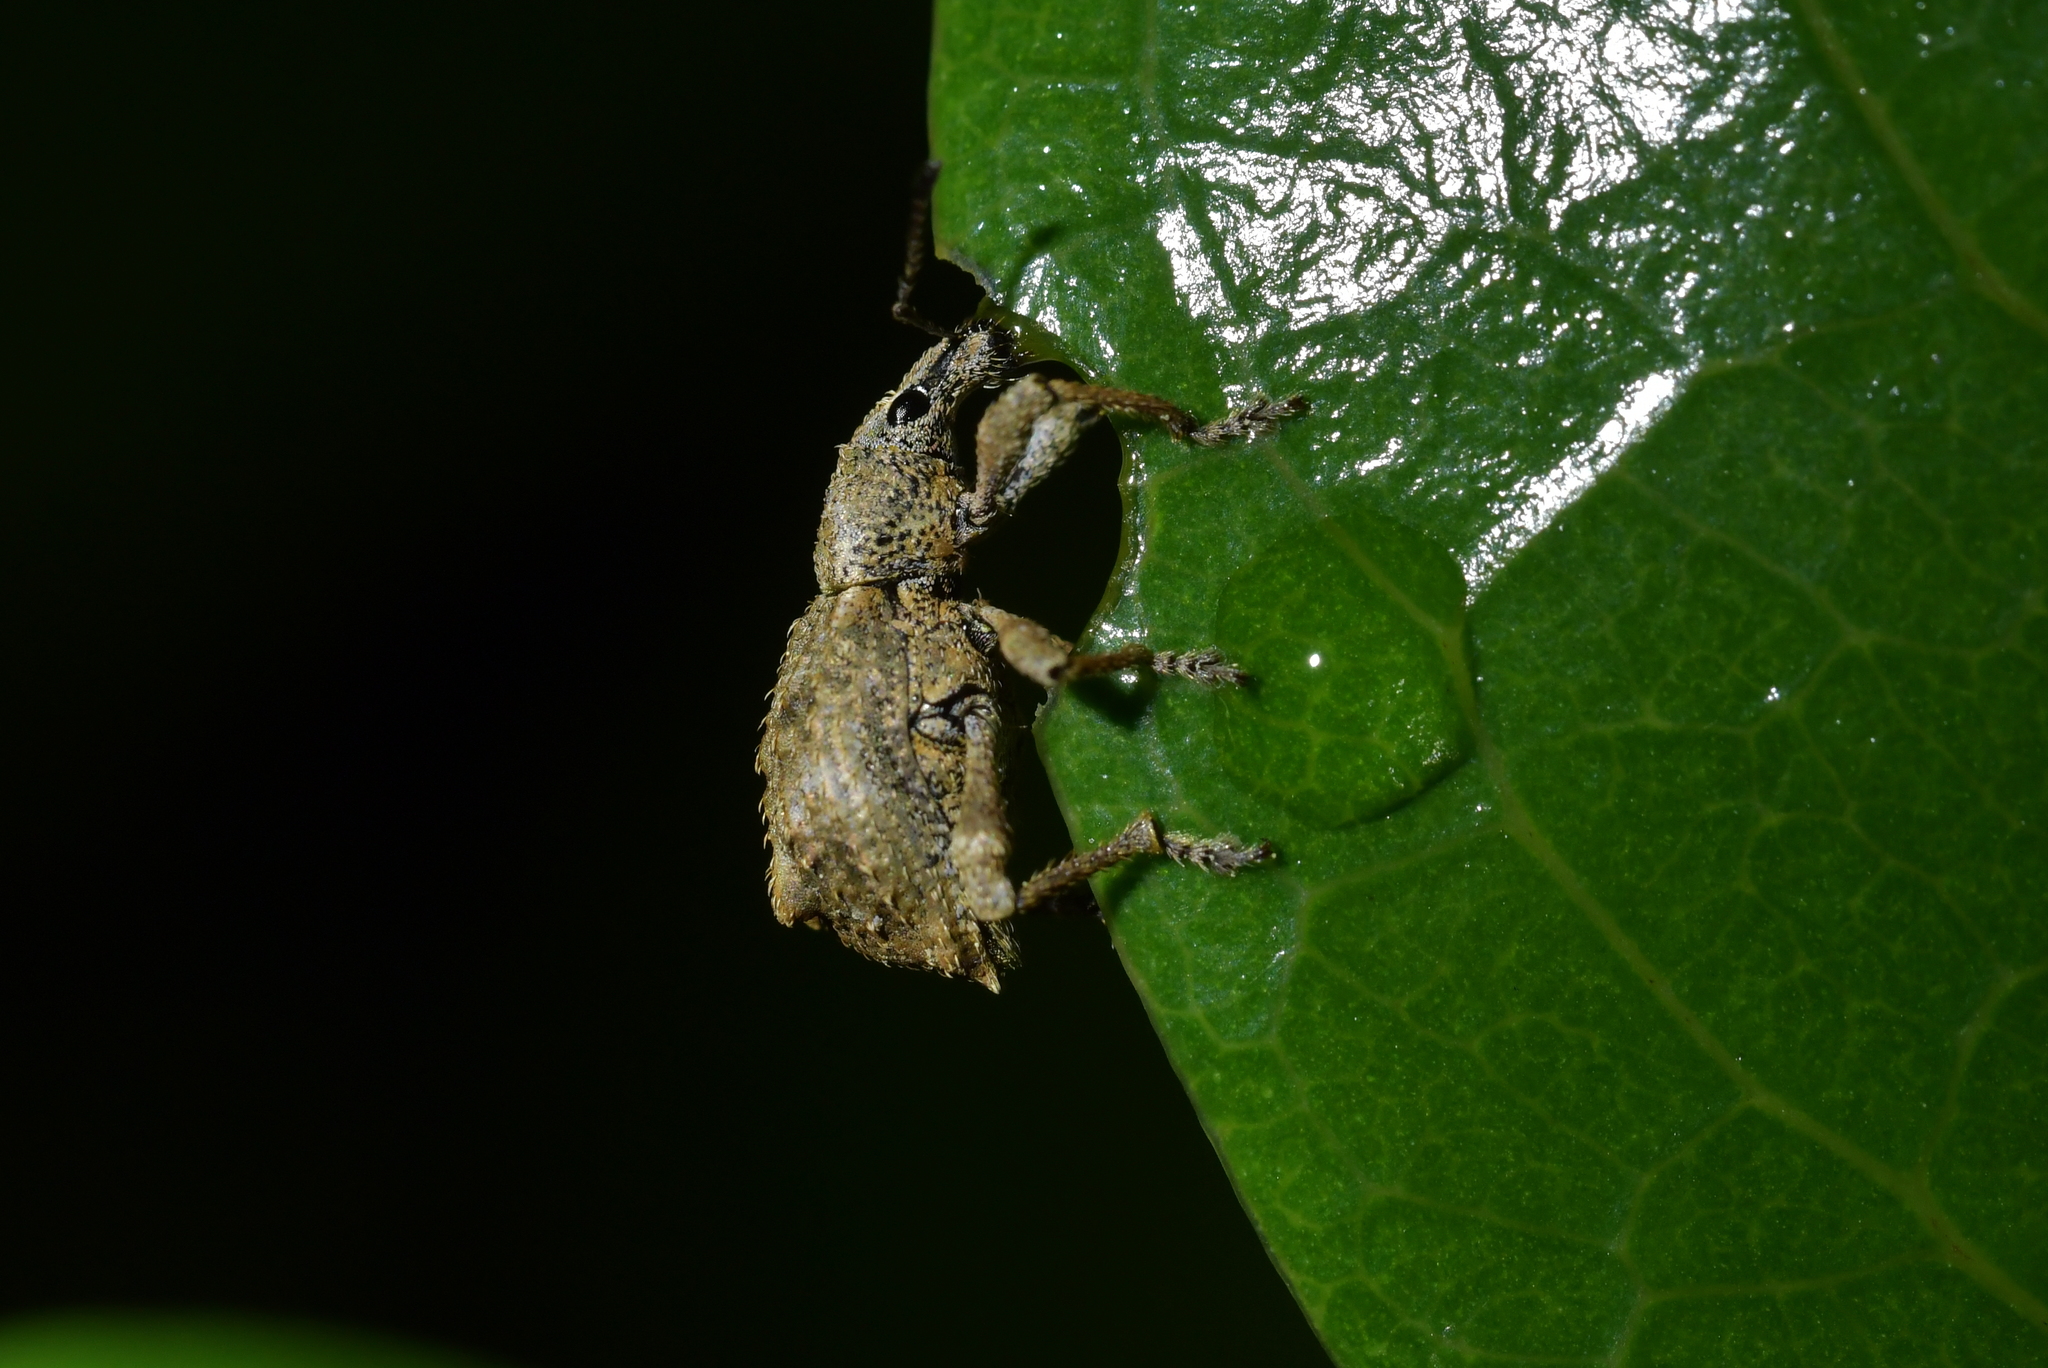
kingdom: Animalia
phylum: Arthropoda
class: Insecta
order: Coleoptera
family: Curculionidae
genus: Catoptes
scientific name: Catoptes binodis
